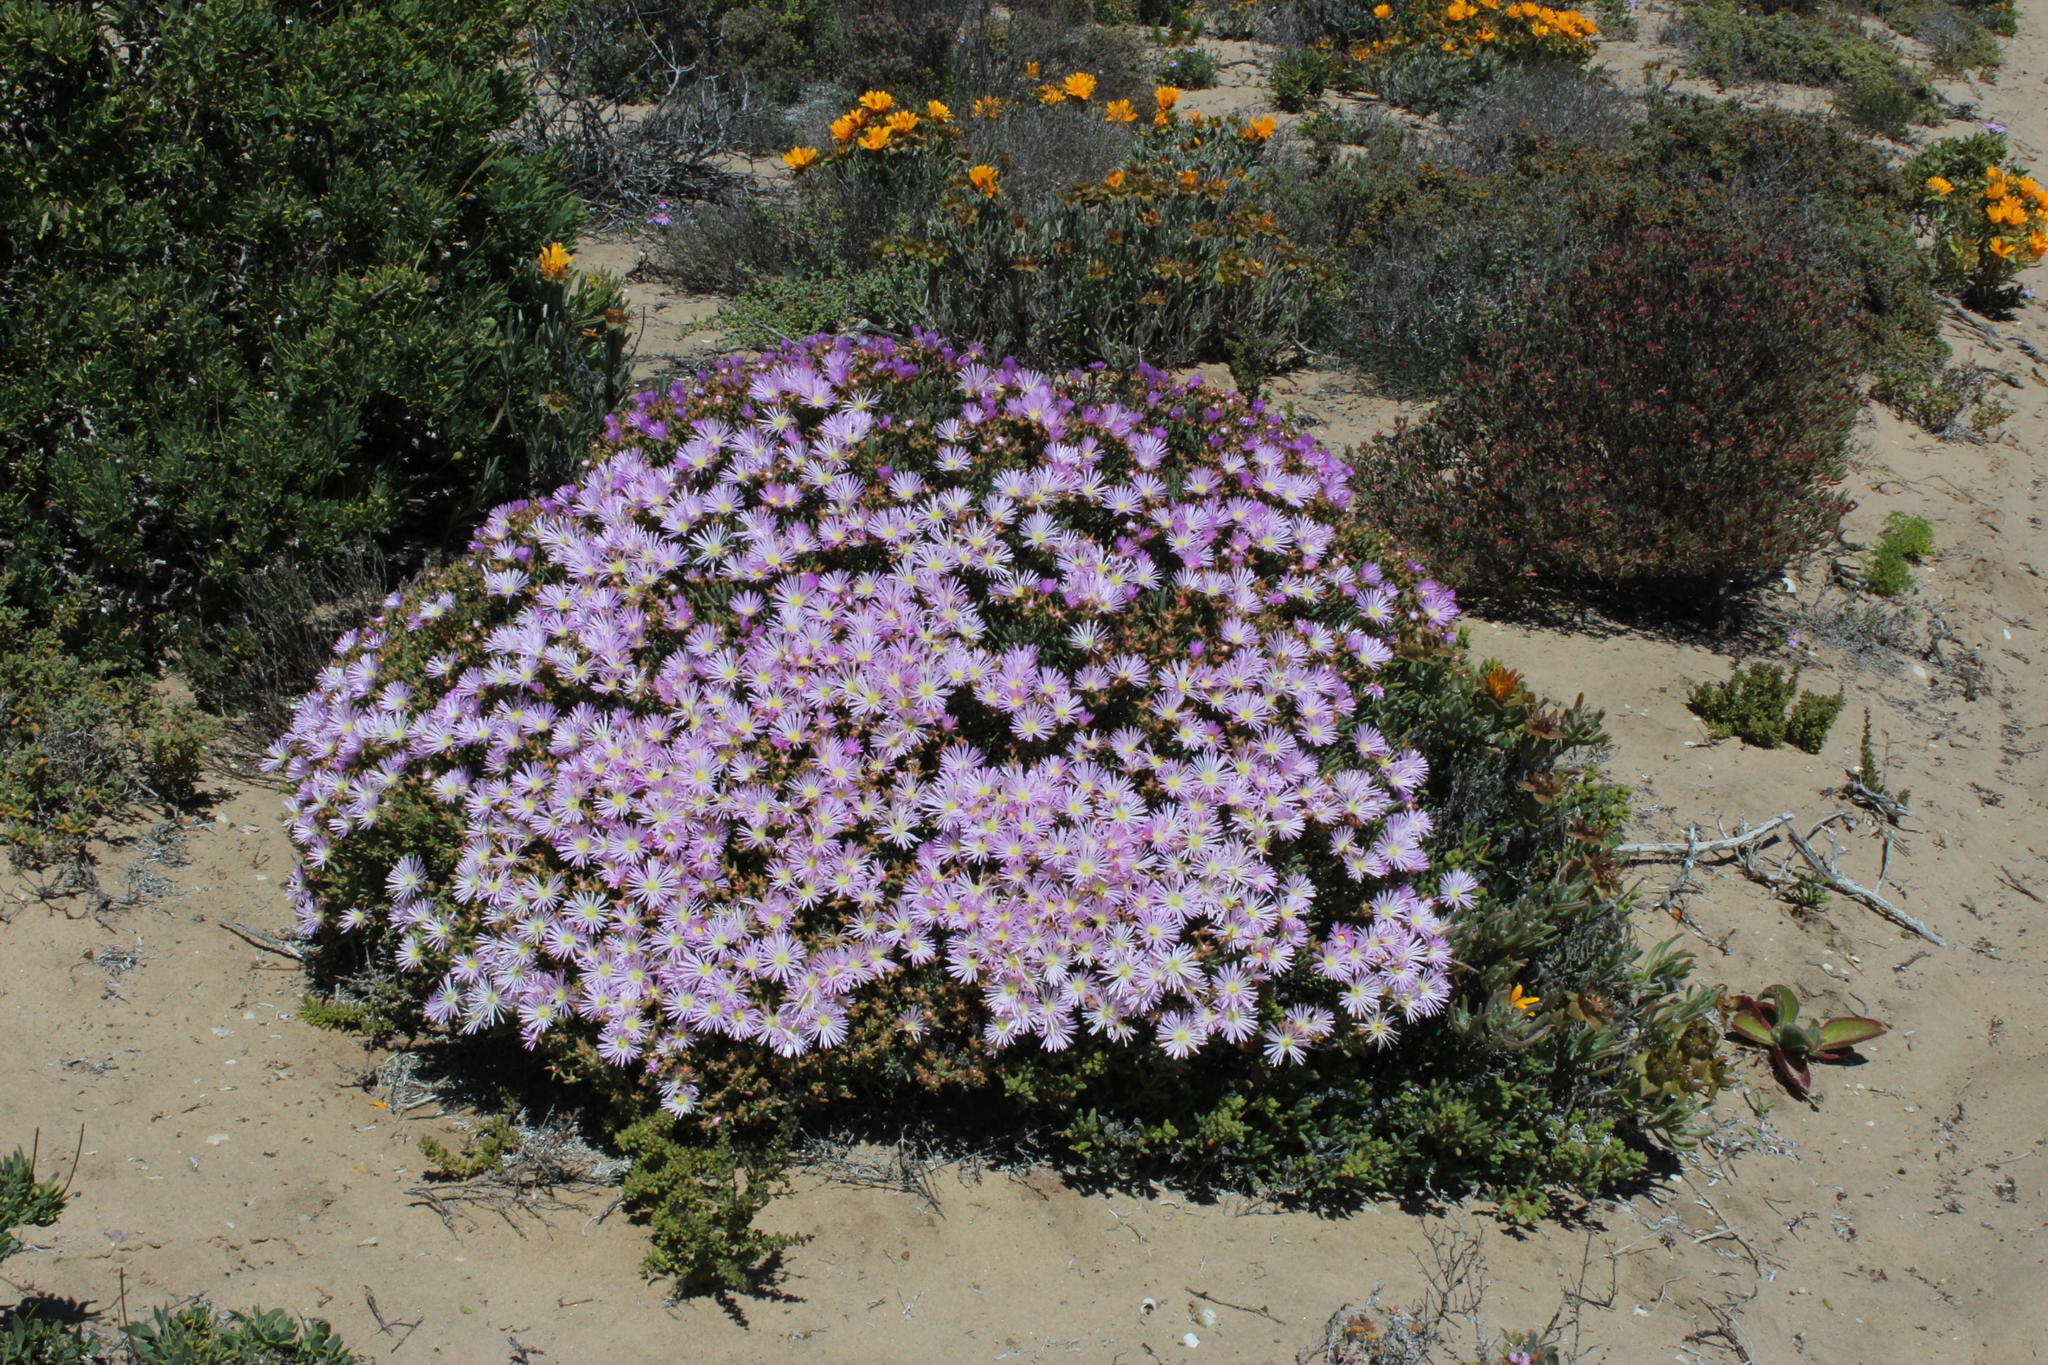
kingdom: Plantae
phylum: Tracheophyta
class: Magnoliopsida
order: Caryophyllales
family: Aizoaceae
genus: Lampranthus
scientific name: Lampranthus suavissimus
